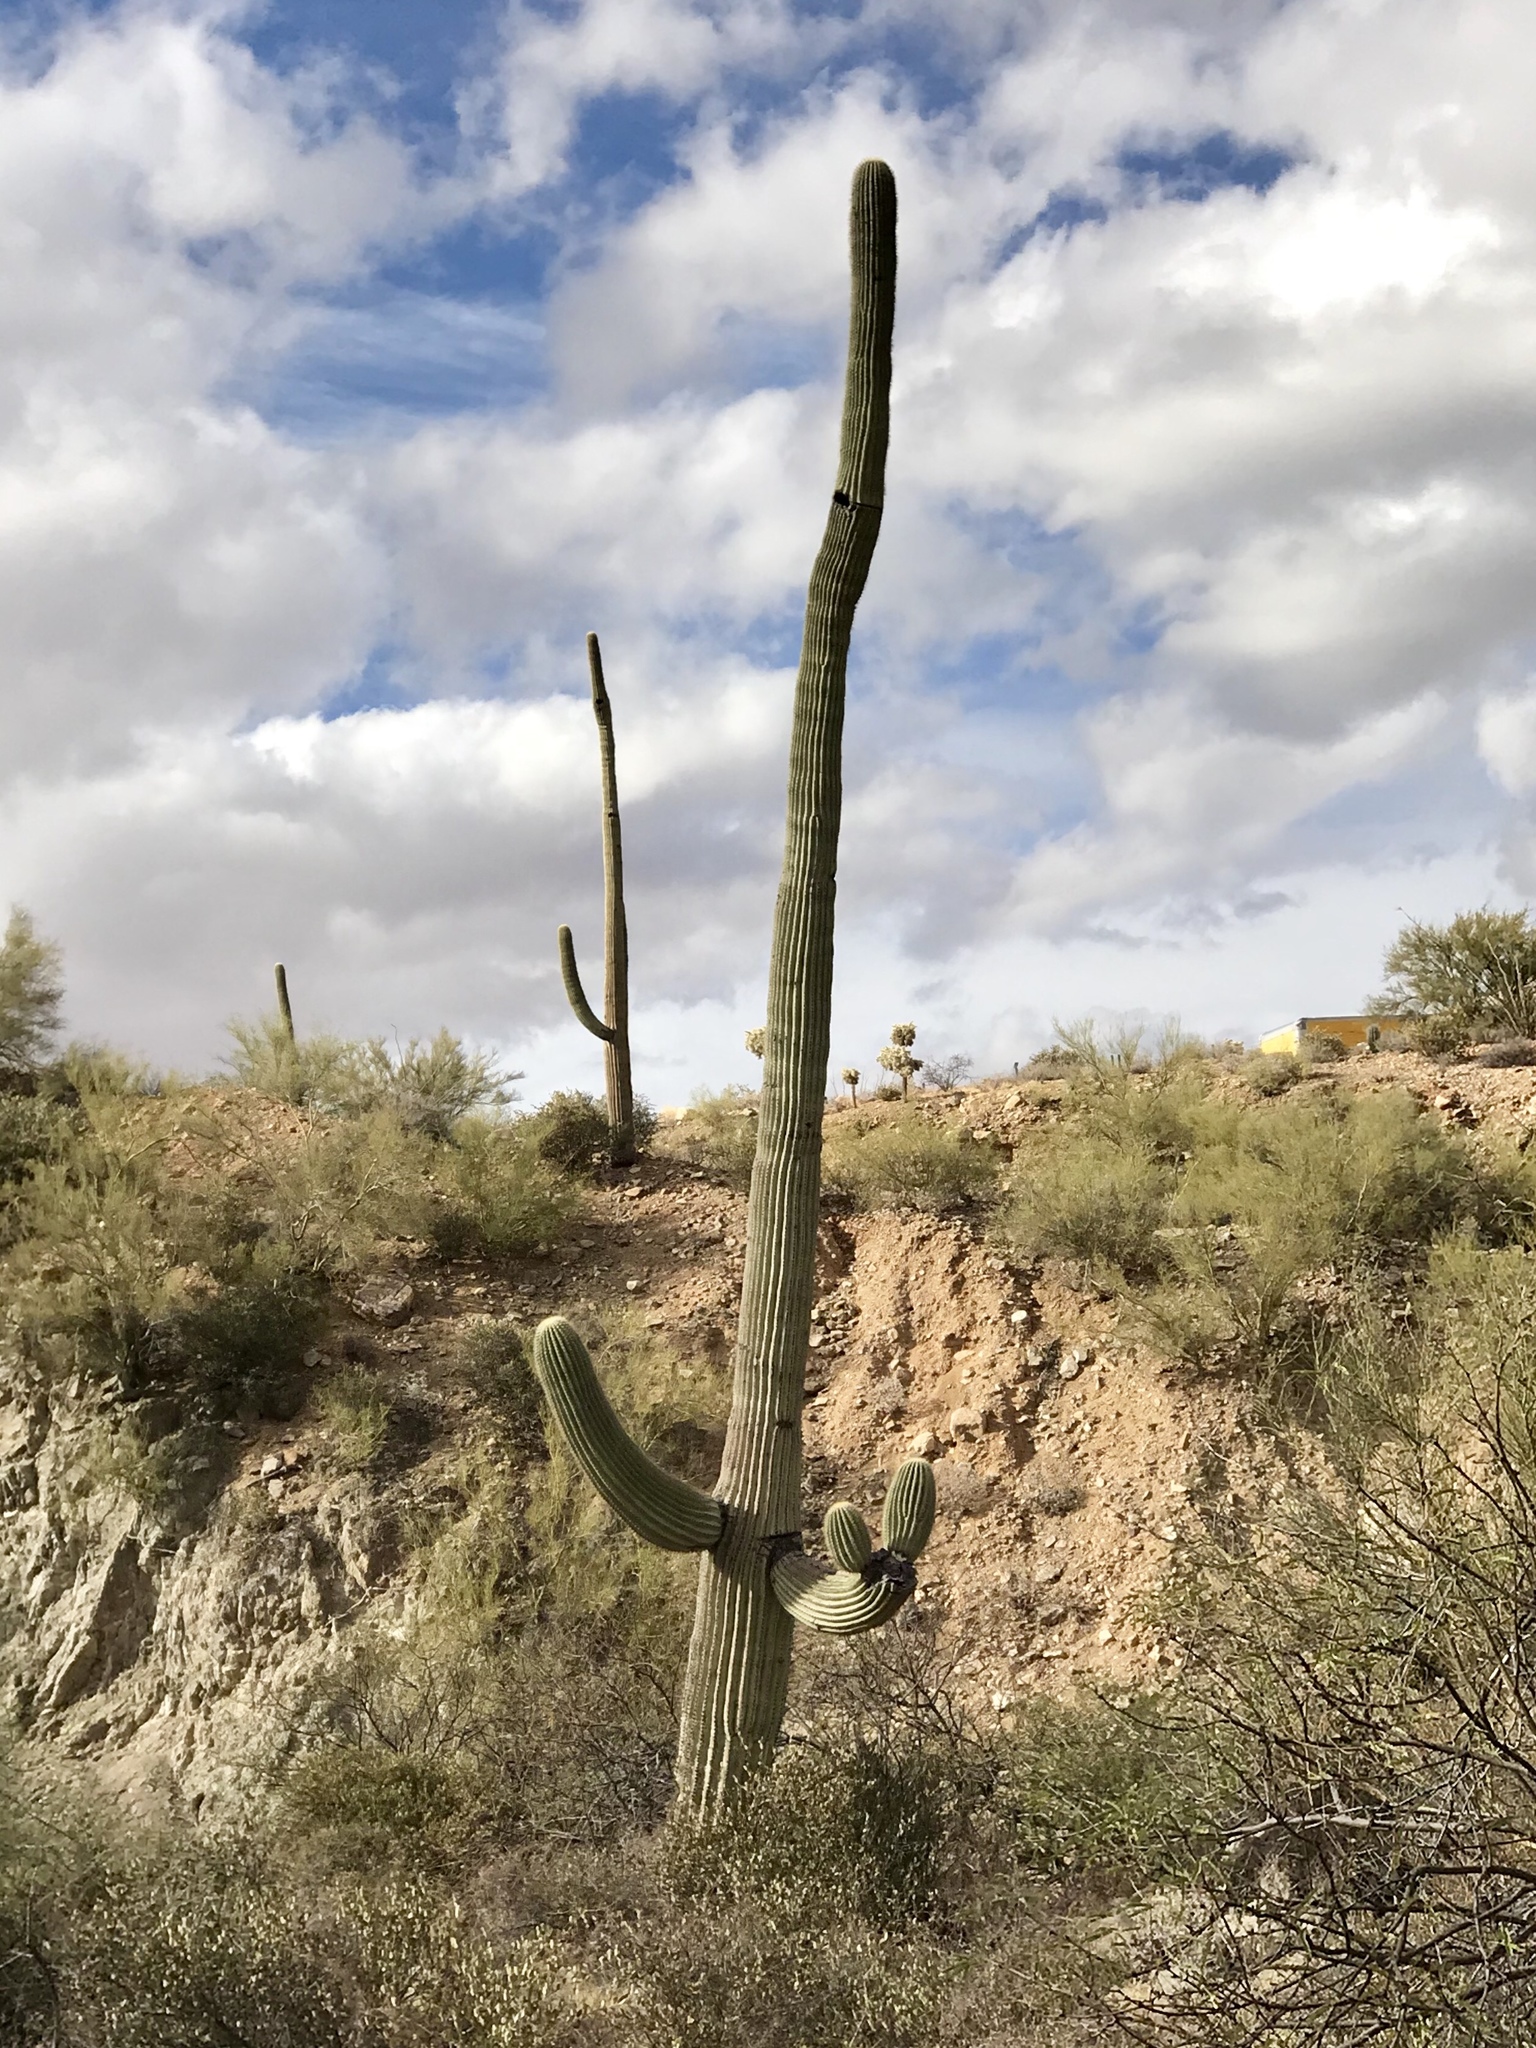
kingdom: Plantae
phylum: Tracheophyta
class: Magnoliopsida
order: Caryophyllales
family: Cactaceae
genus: Carnegiea
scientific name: Carnegiea gigantea
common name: Saguaro
